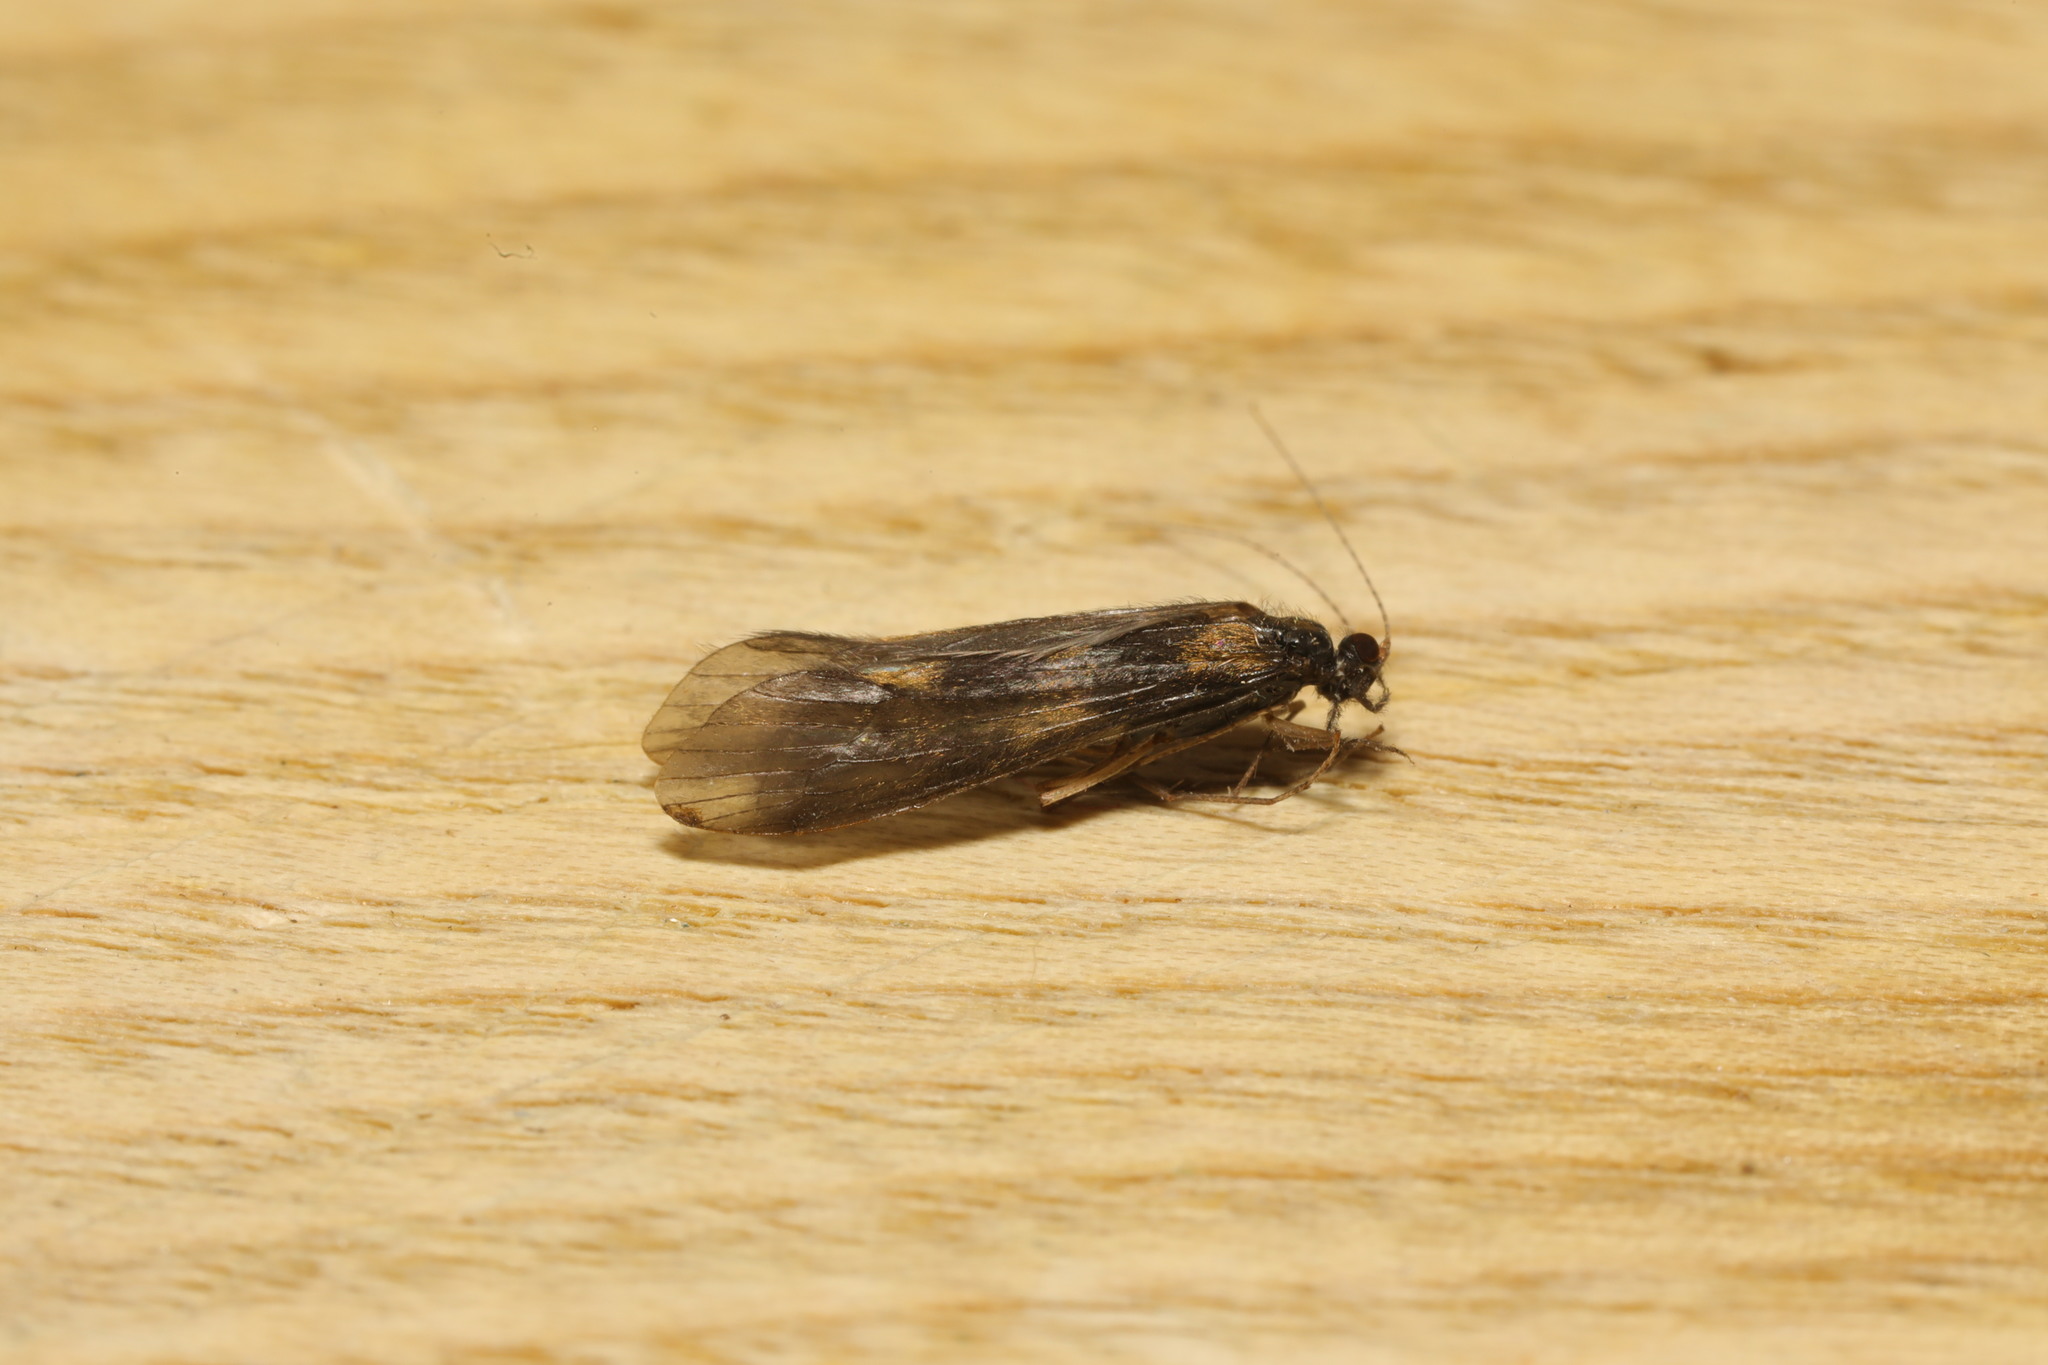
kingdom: Animalia
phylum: Arthropoda
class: Insecta
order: Trichoptera
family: Leptoceridae
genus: Mystacides
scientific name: Mystacides longicornis
